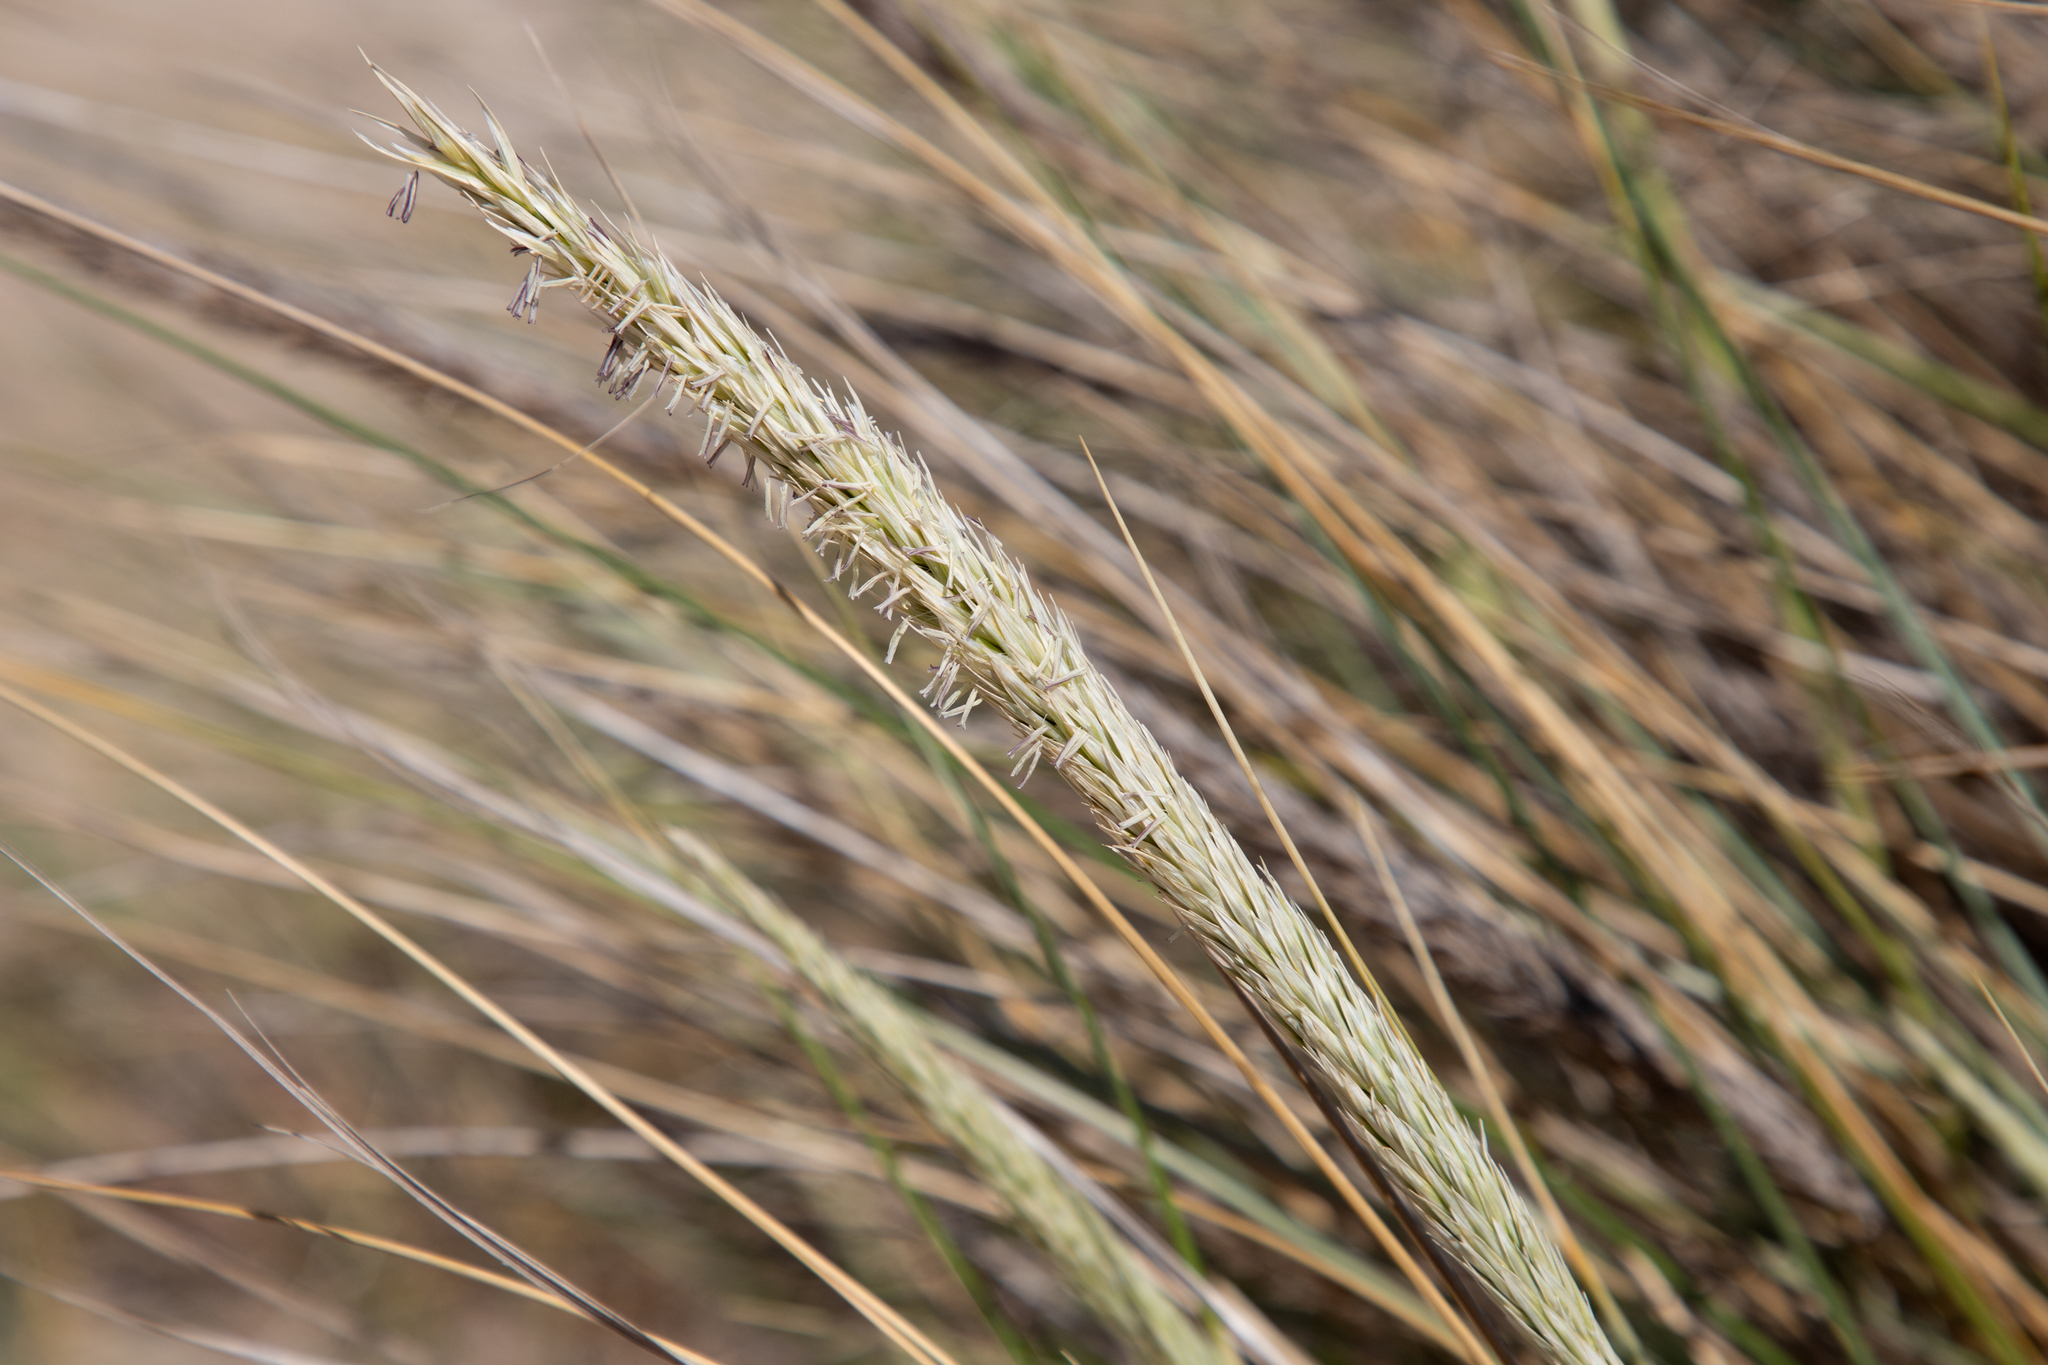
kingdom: Plantae
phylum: Tracheophyta
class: Liliopsida
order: Poales
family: Poaceae
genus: Calamagrostis
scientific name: Calamagrostis arenaria
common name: European beachgrass
